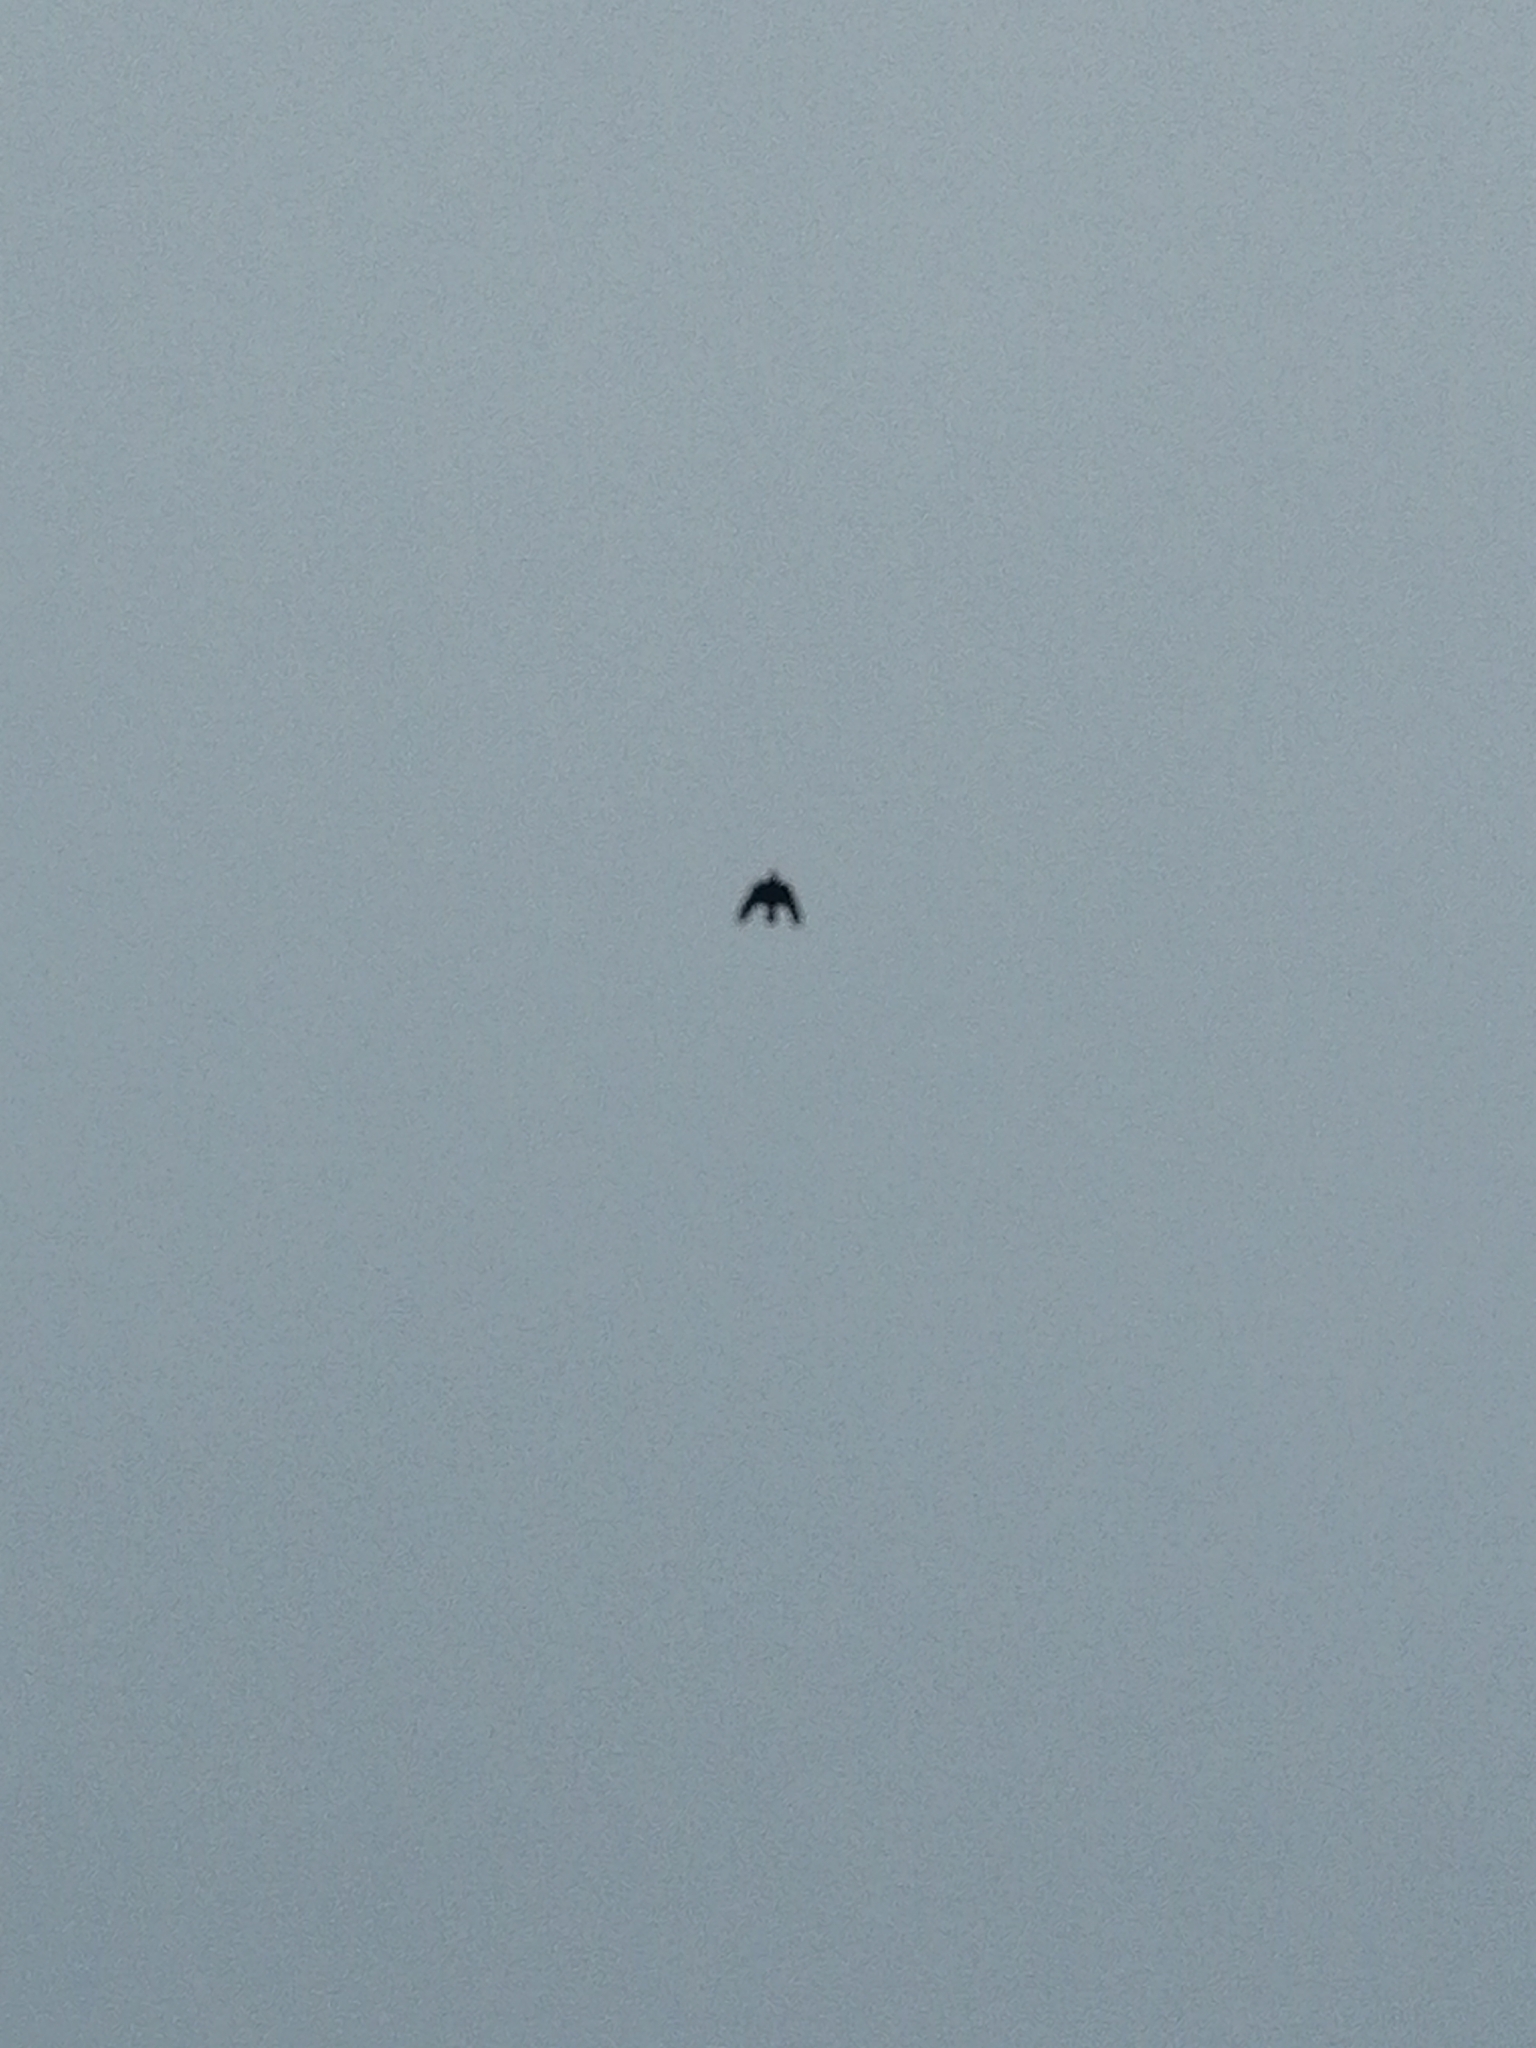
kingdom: Animalia
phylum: Chordata
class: Aves
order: Passeriformes
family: Corvidae
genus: Corvus
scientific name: Corvus corone
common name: Carrion crow
